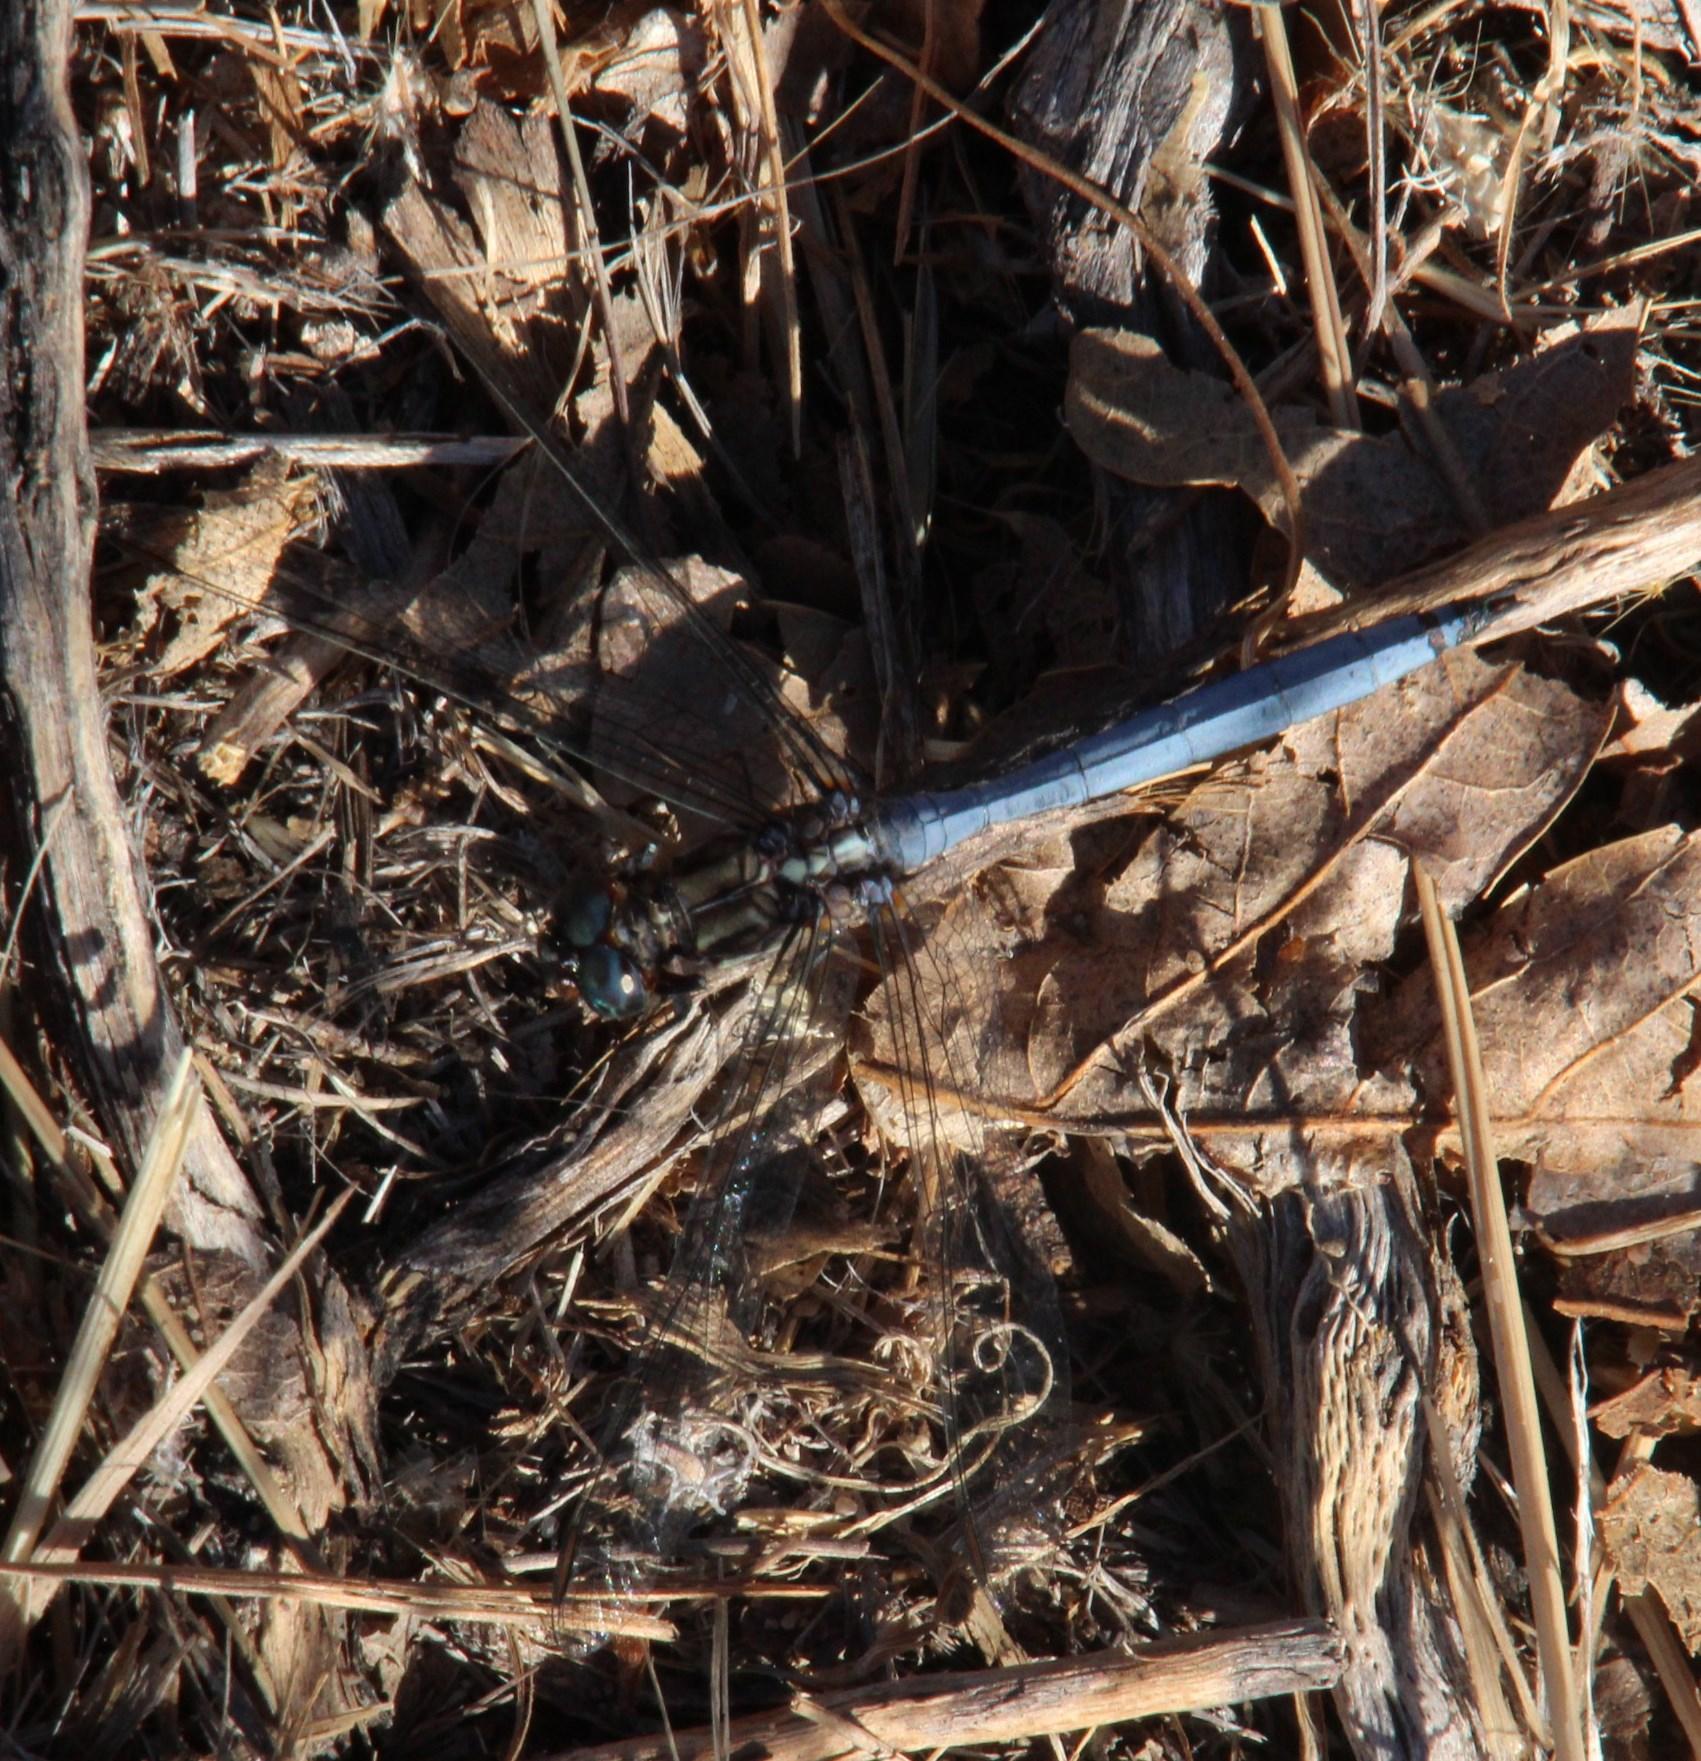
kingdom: Animalia
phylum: Arthropoda
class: Insecta
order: Odonata
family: Libellulidae
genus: Orthetrum
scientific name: Orthetrum julia
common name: Julia skimmer
